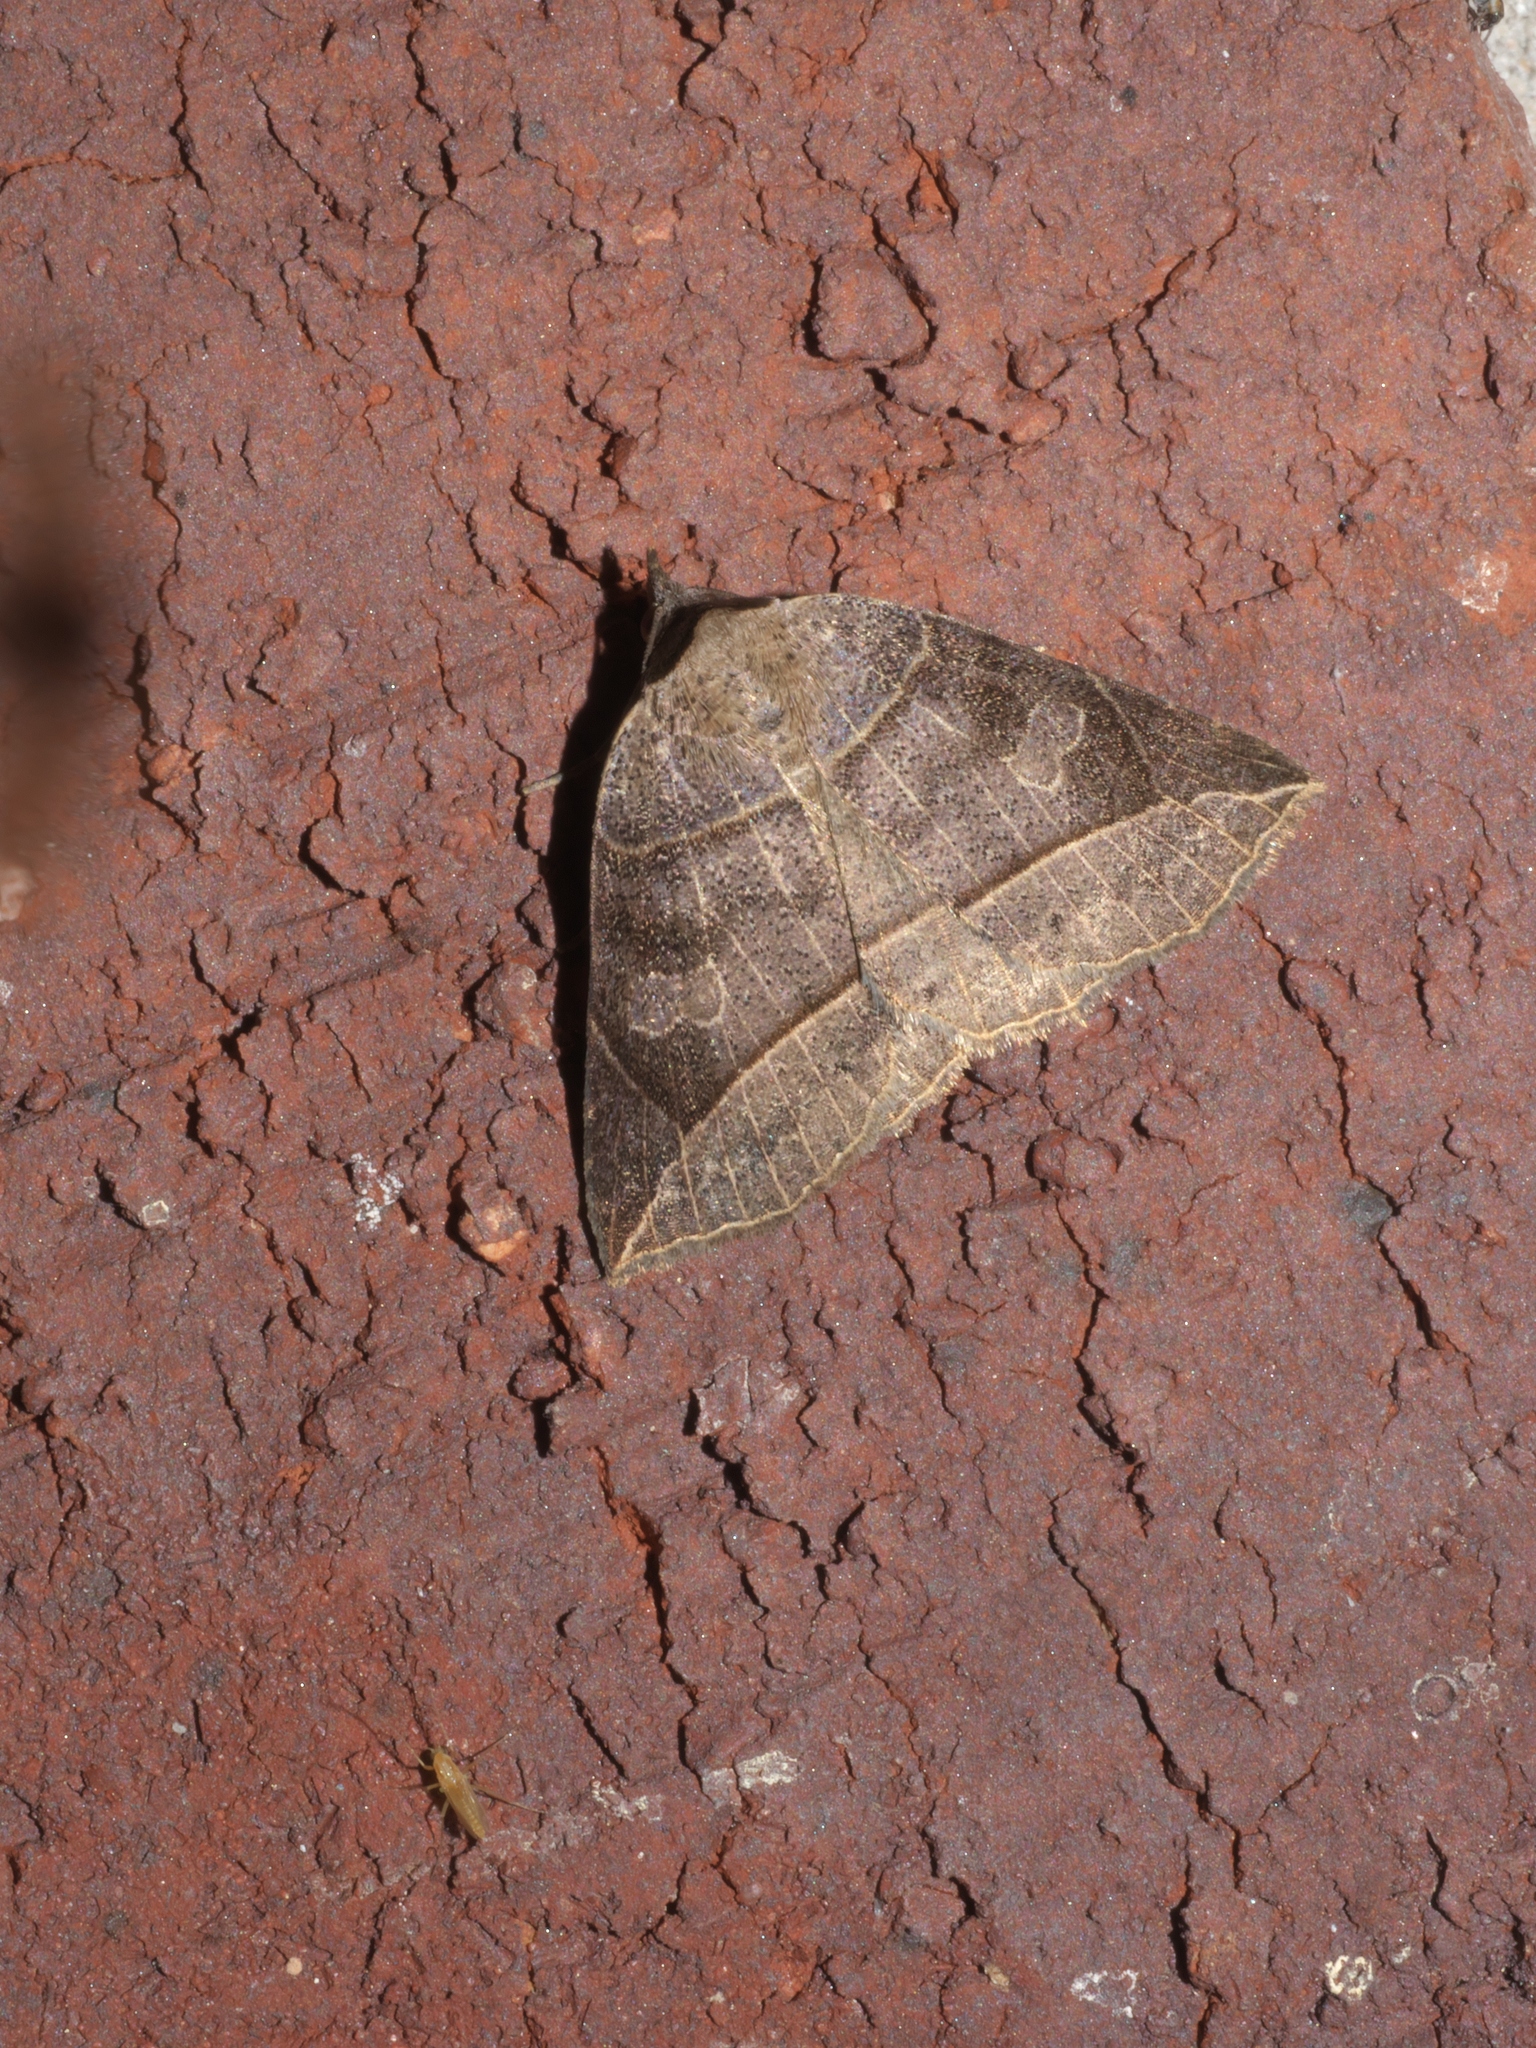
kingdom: Animalia
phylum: Arthropoda
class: Insecta
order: Lepidoptera
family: Erebidae
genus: Isogona
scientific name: Isogona tenuis
